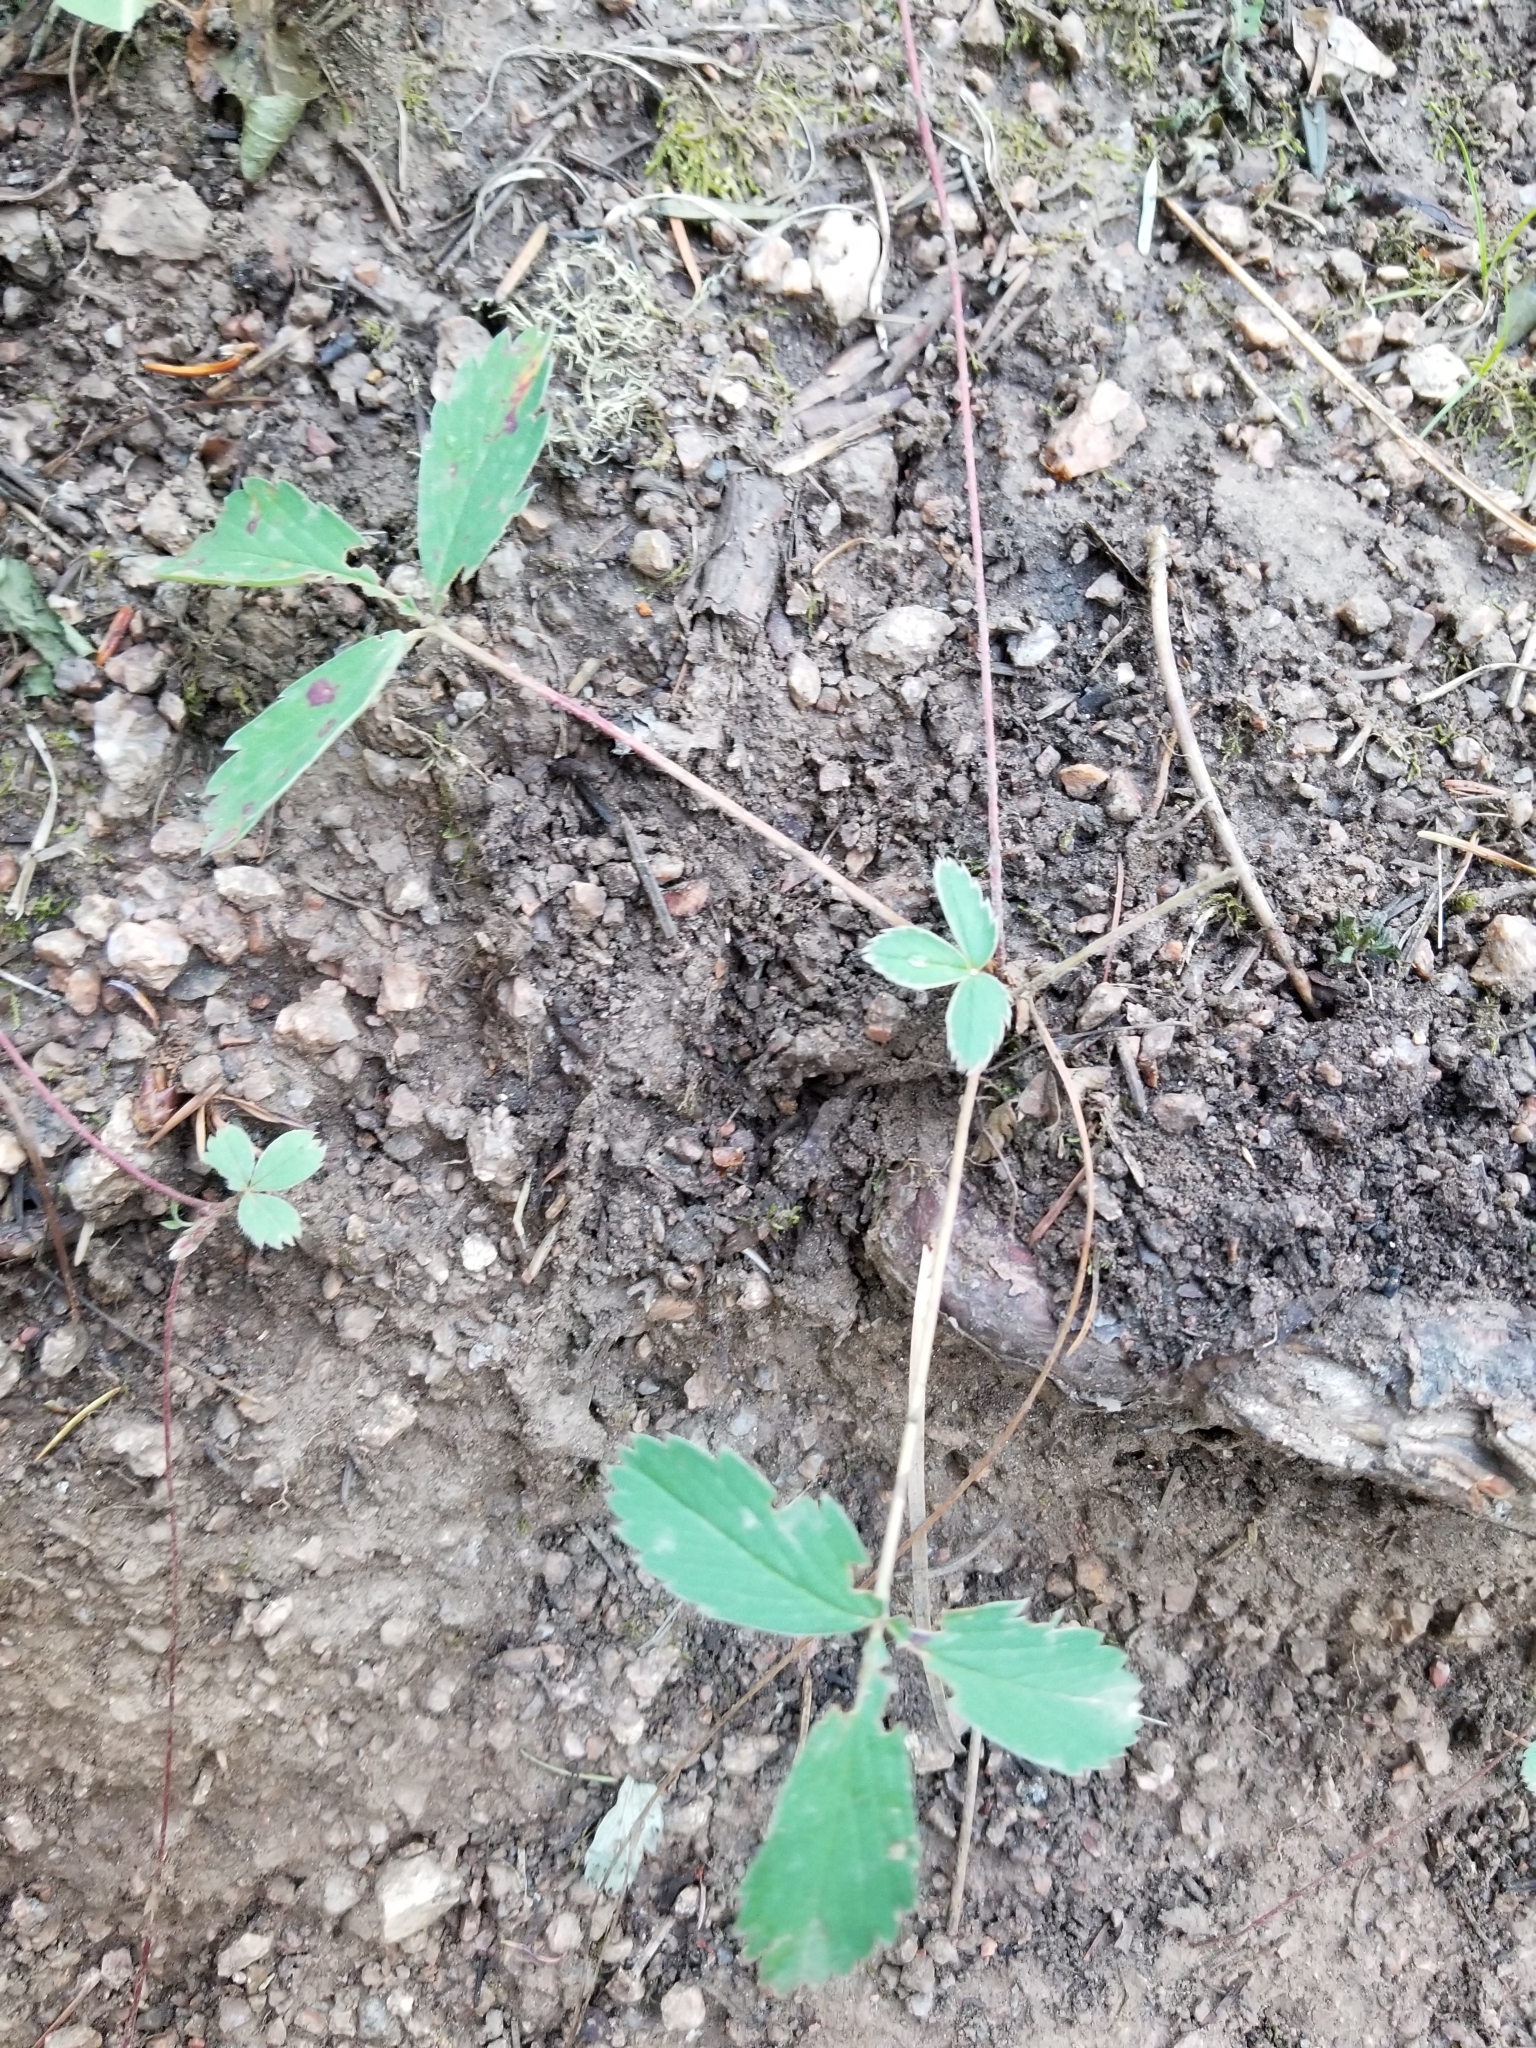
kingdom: Plantae
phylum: Tracheophyta
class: Magnoliopsida
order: Rosales
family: Rosaceae
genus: Fragaria
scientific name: Fragaria virginiana
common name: Thickleaved wild strawberry
